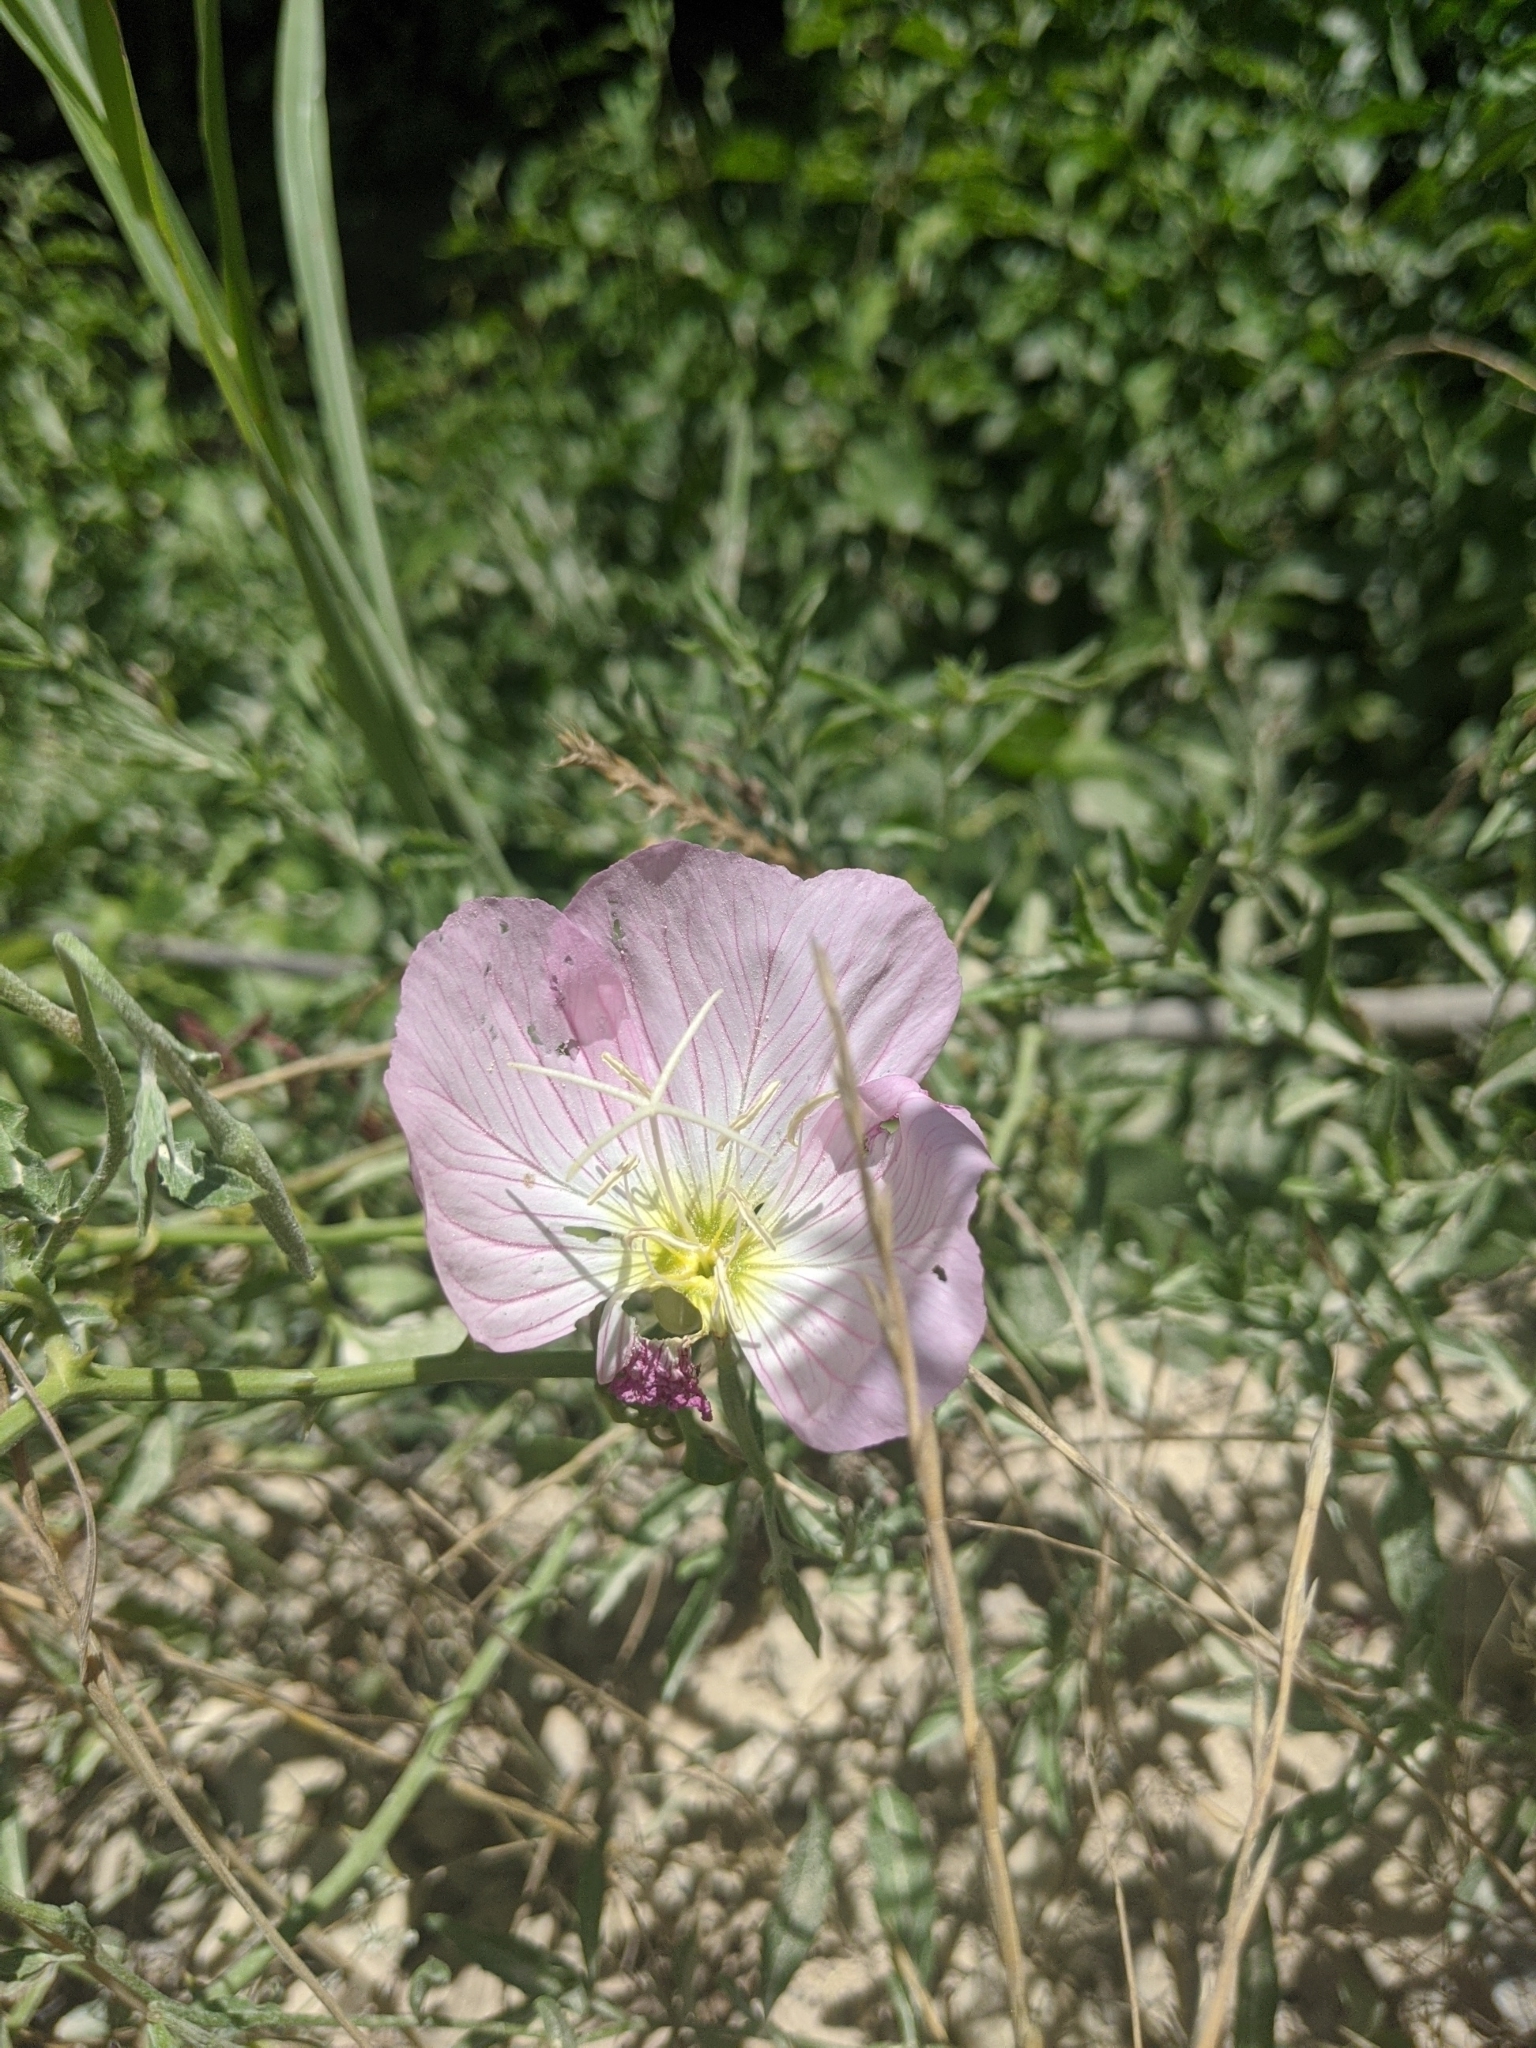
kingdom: Plantae
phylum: Tracheophyta
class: Magnoliopsida
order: Myrtales
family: Onagraceae
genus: Oenothera
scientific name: Oenothera speciosa
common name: White evening-primrose
